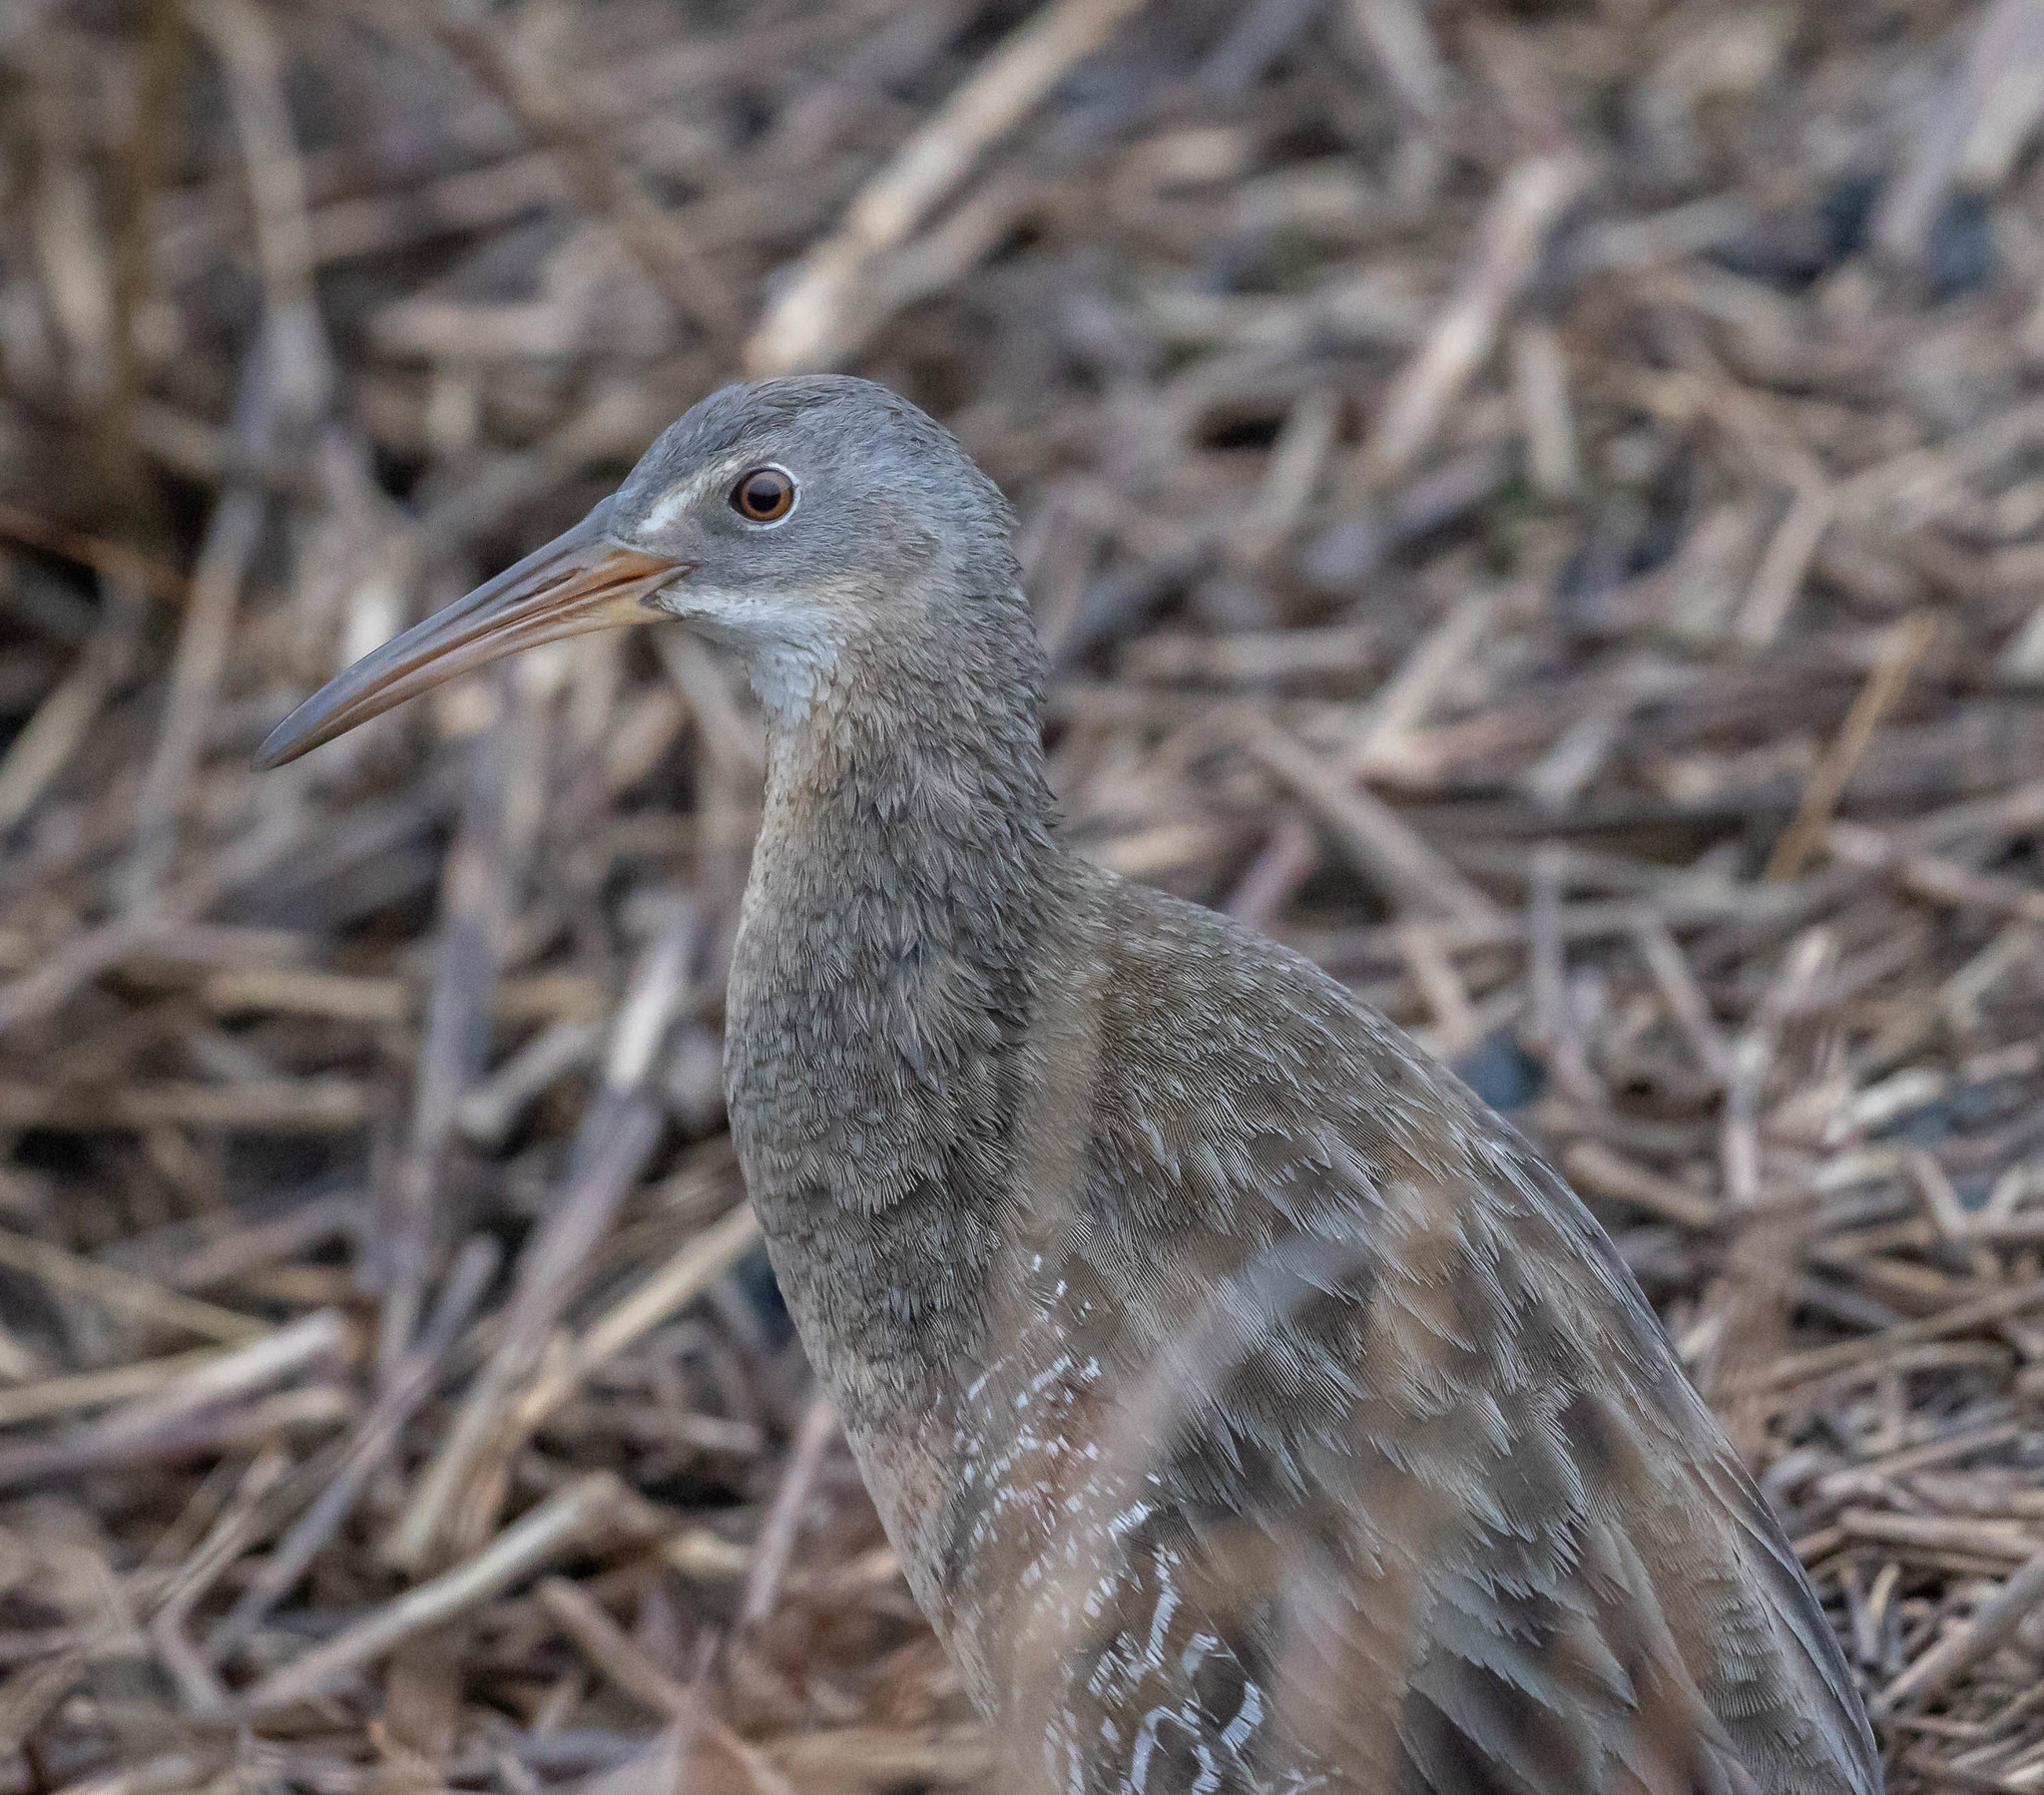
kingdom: Animalia
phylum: Chordata
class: Aves
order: Gruiformes
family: Rallidae
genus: Rallus
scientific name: Rallus crepitans
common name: Clapper rail
